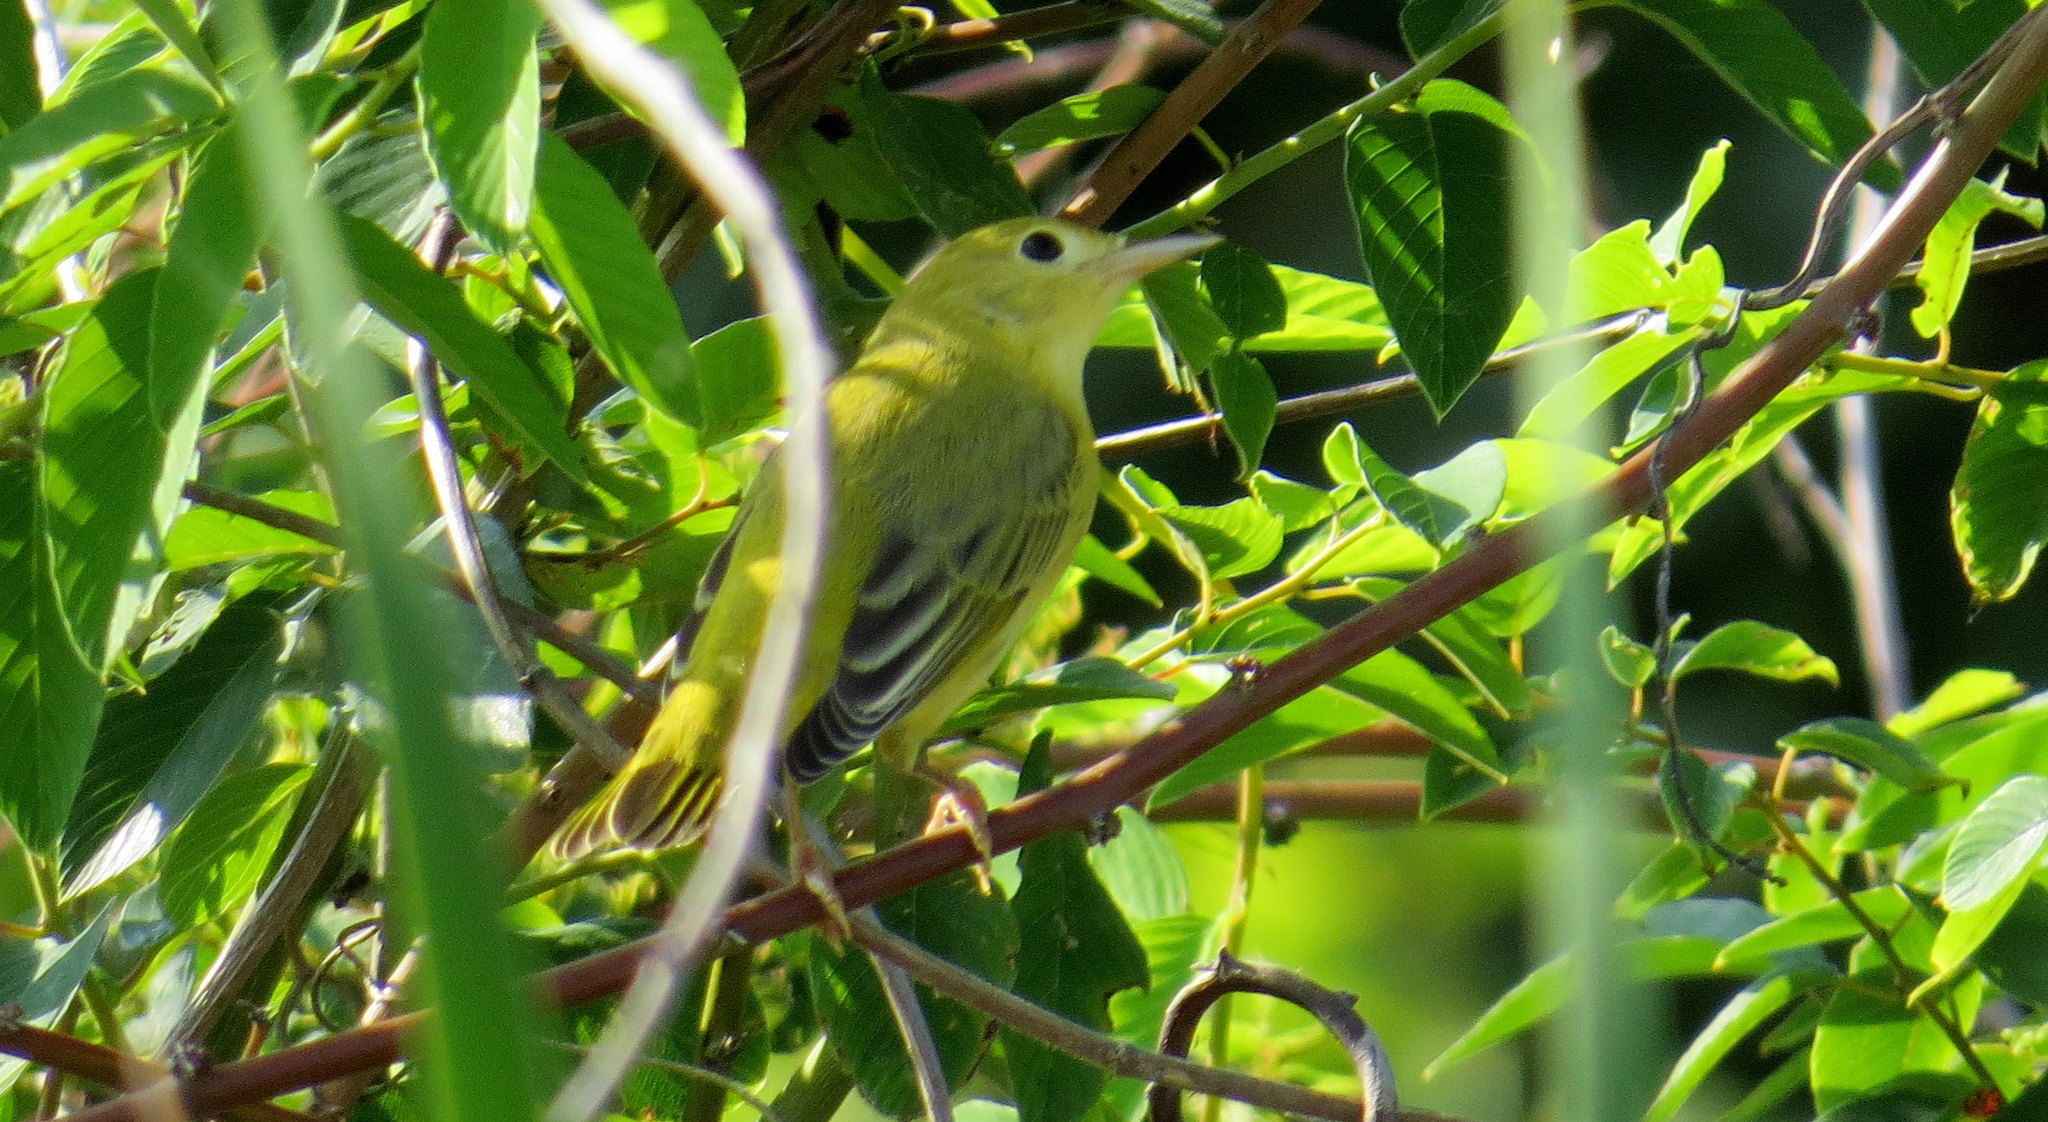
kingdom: Animalia
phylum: Chordata
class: Aves
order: Passeriformes
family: Parulidae
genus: Setophaga
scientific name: Setophaga petechia
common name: Yellow warbler
